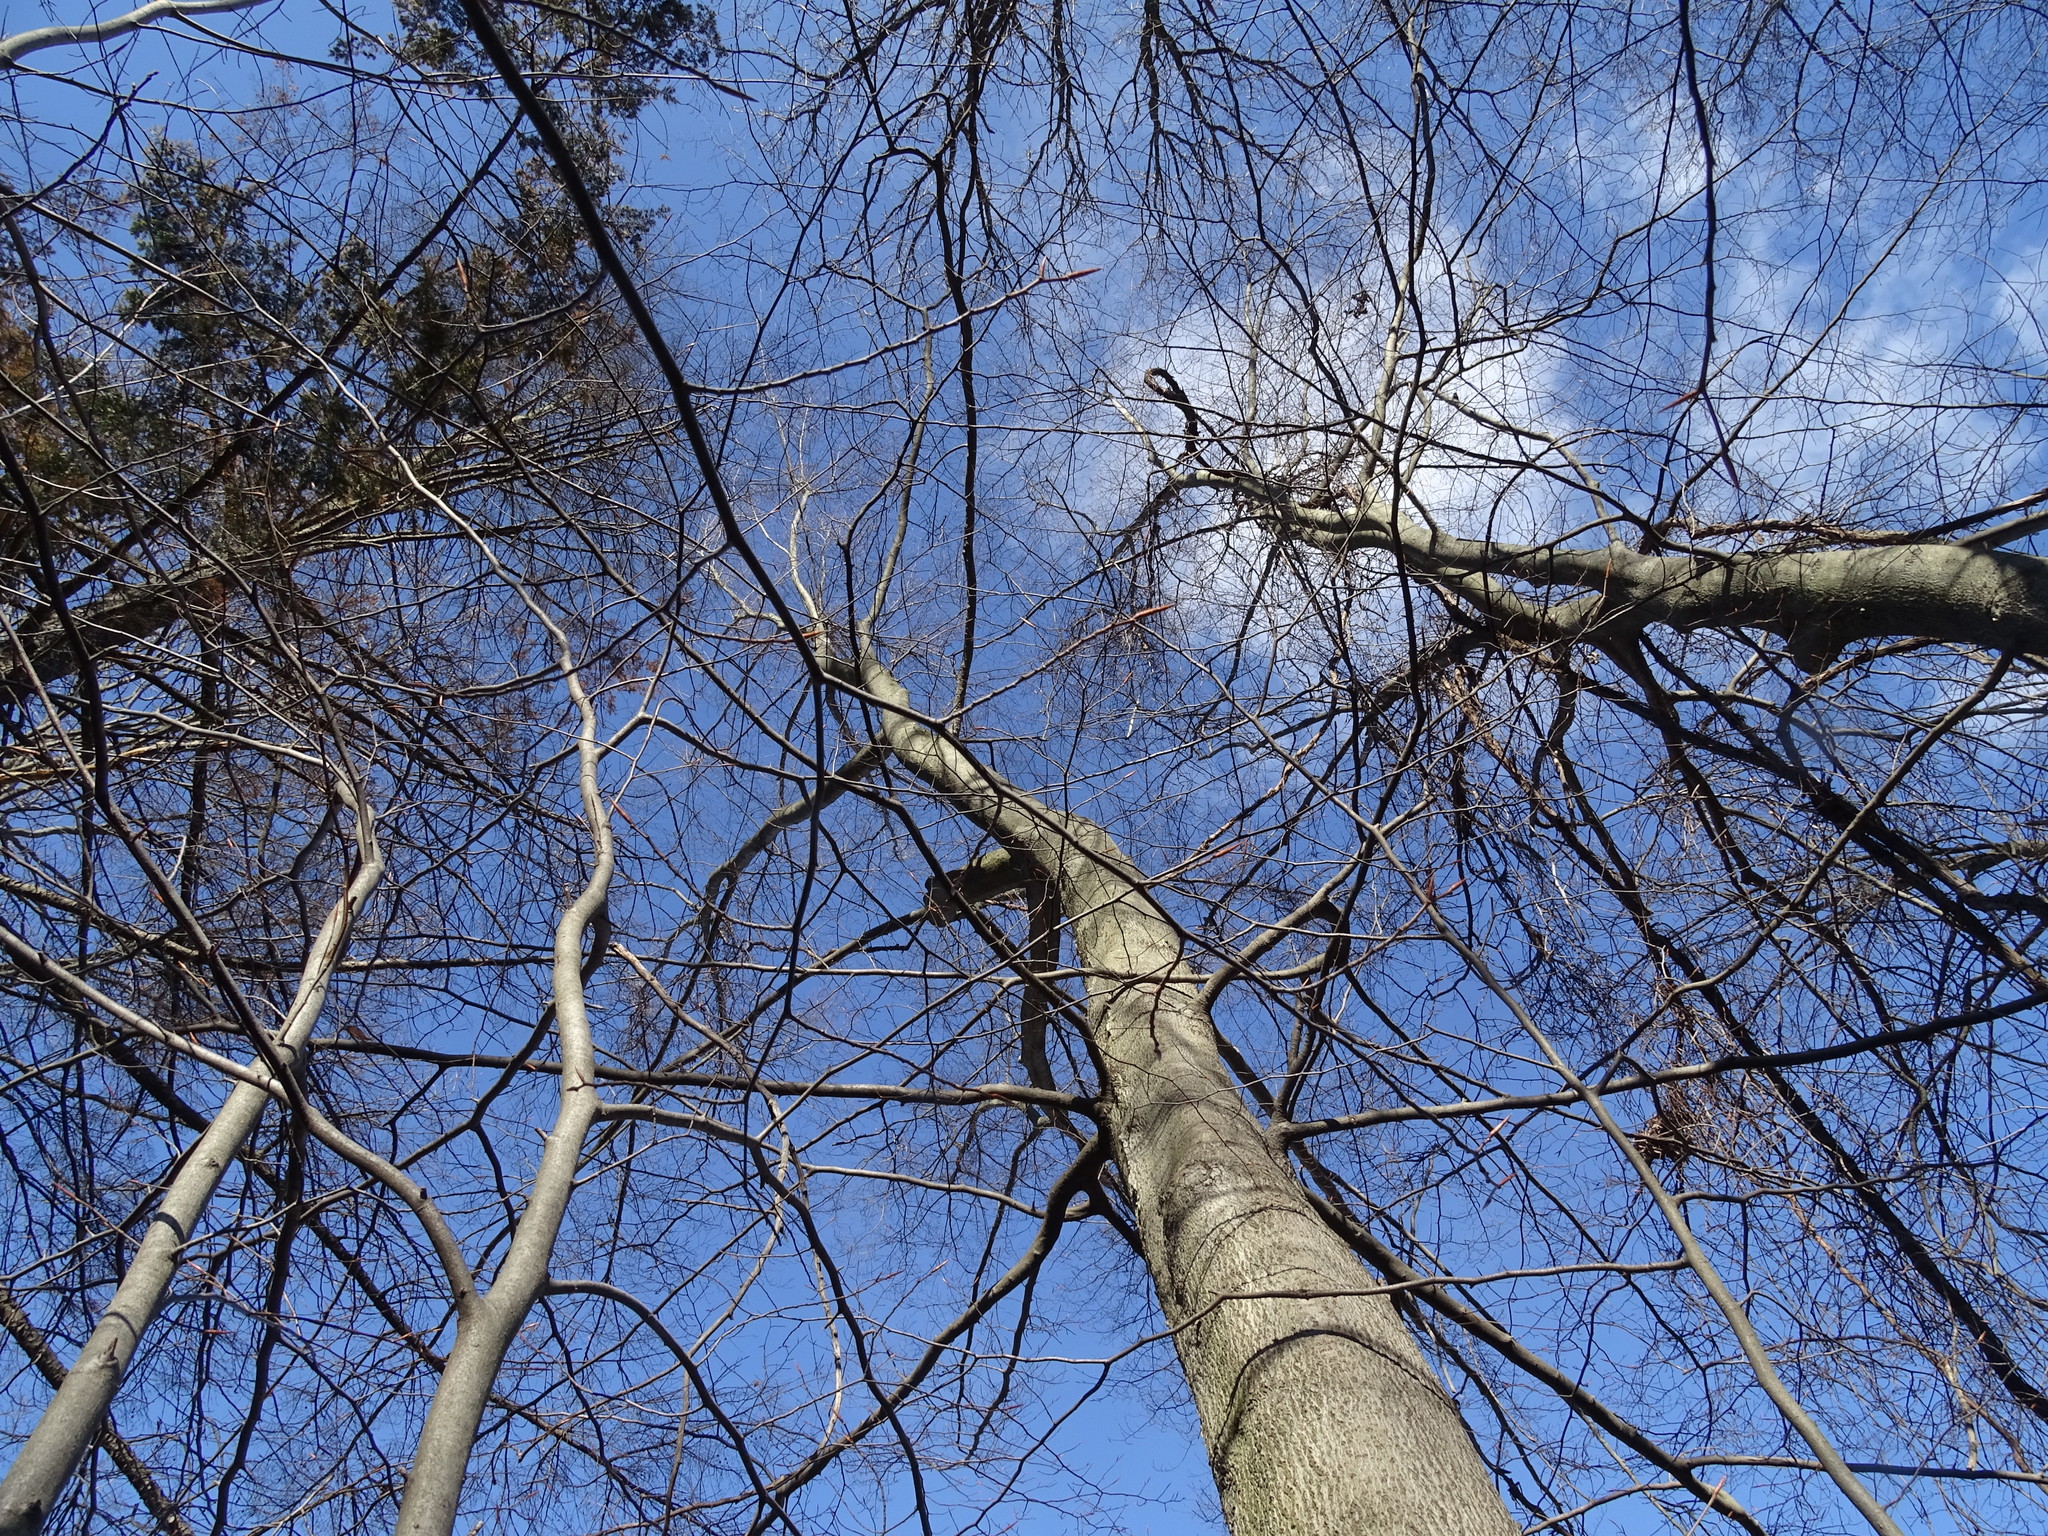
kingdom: Plantae
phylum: Tracheophyta
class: Magnoliopsida
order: Fagales
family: Juglandaceae
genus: Carya
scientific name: Carya cordiformis
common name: Bitternut hickory
